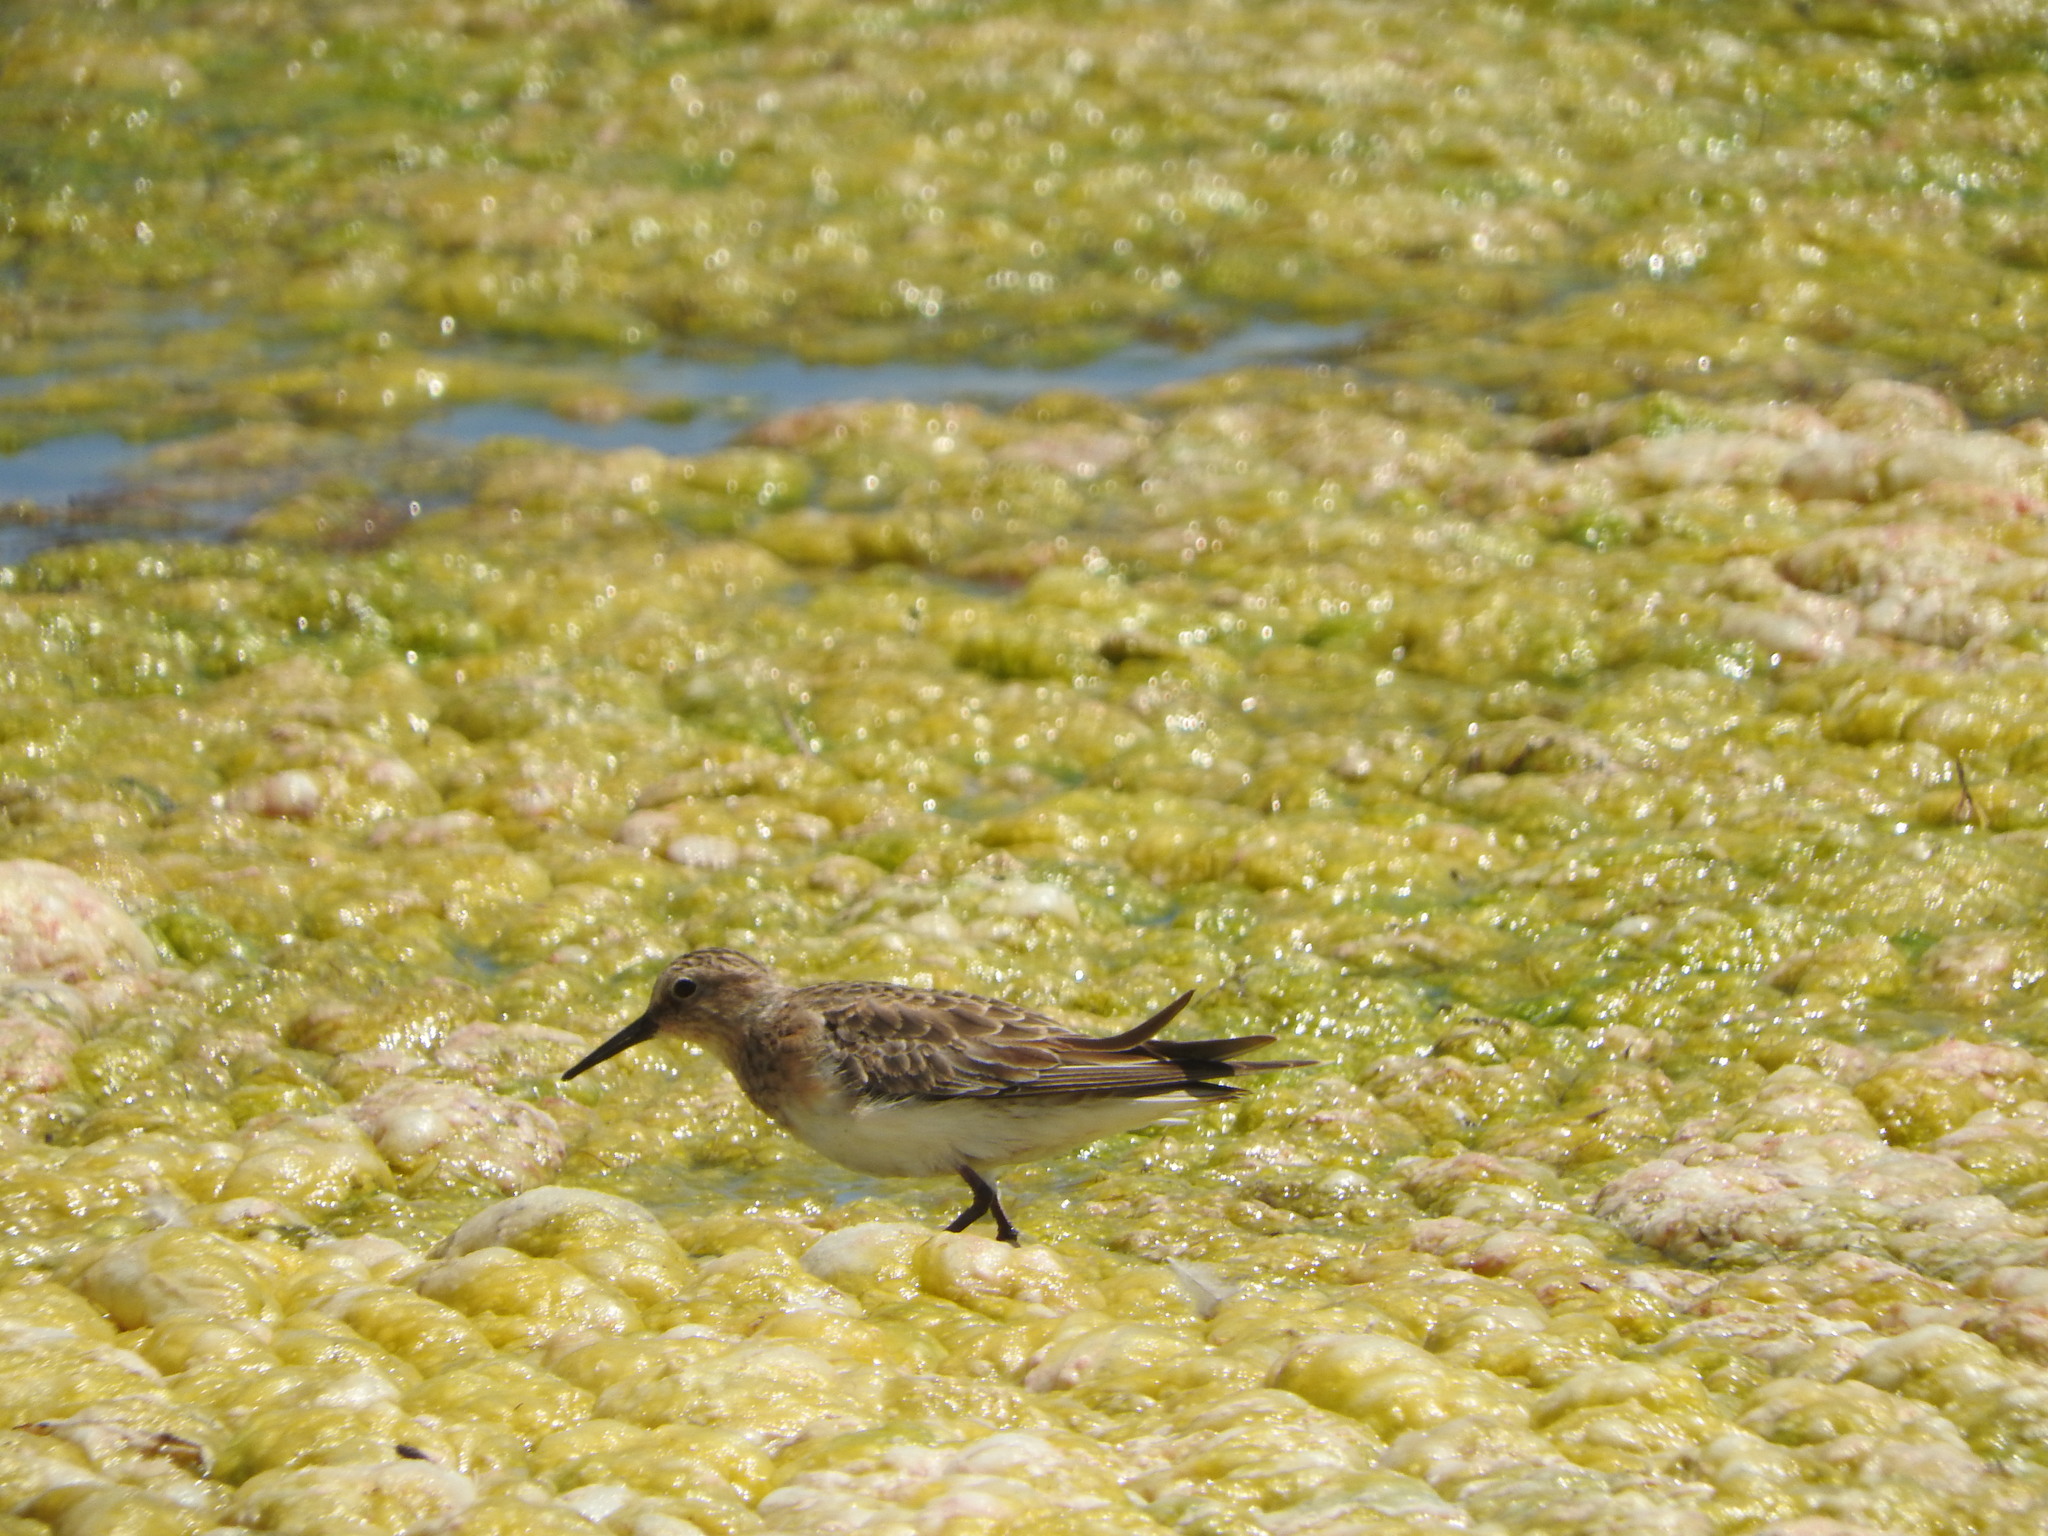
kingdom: Animalia
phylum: Chordata
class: Aves
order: Charadriiformes
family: Scolopacidae
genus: Calidris
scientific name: Calidris bairdii
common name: Baird's sandpiper
